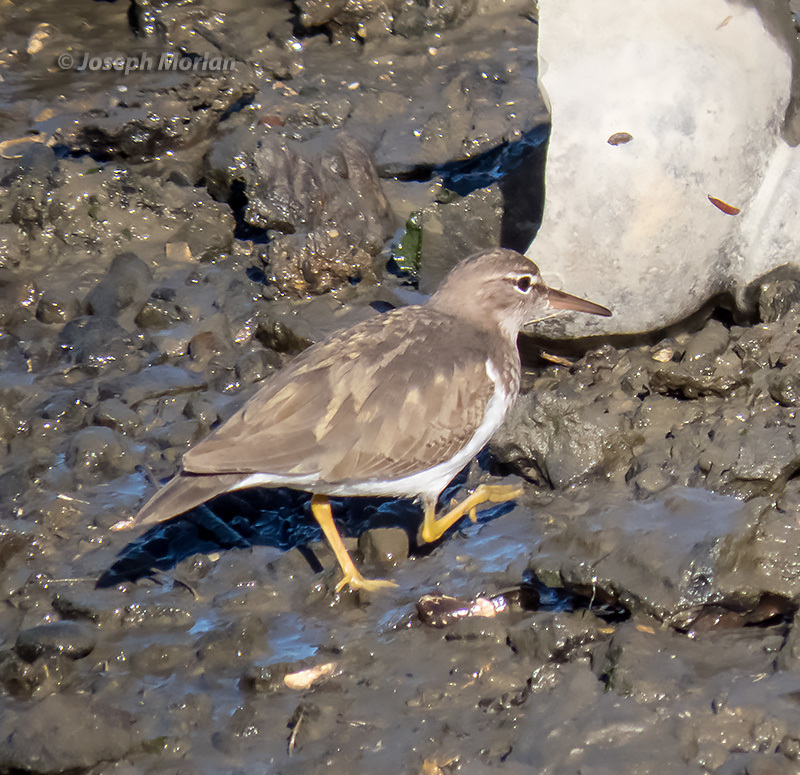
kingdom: Animalia
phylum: Chordata
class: Aves
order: Charadriiformes
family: Scolopacidae
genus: Actitis
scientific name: Actitis macularius
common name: Spotted sandpiper
